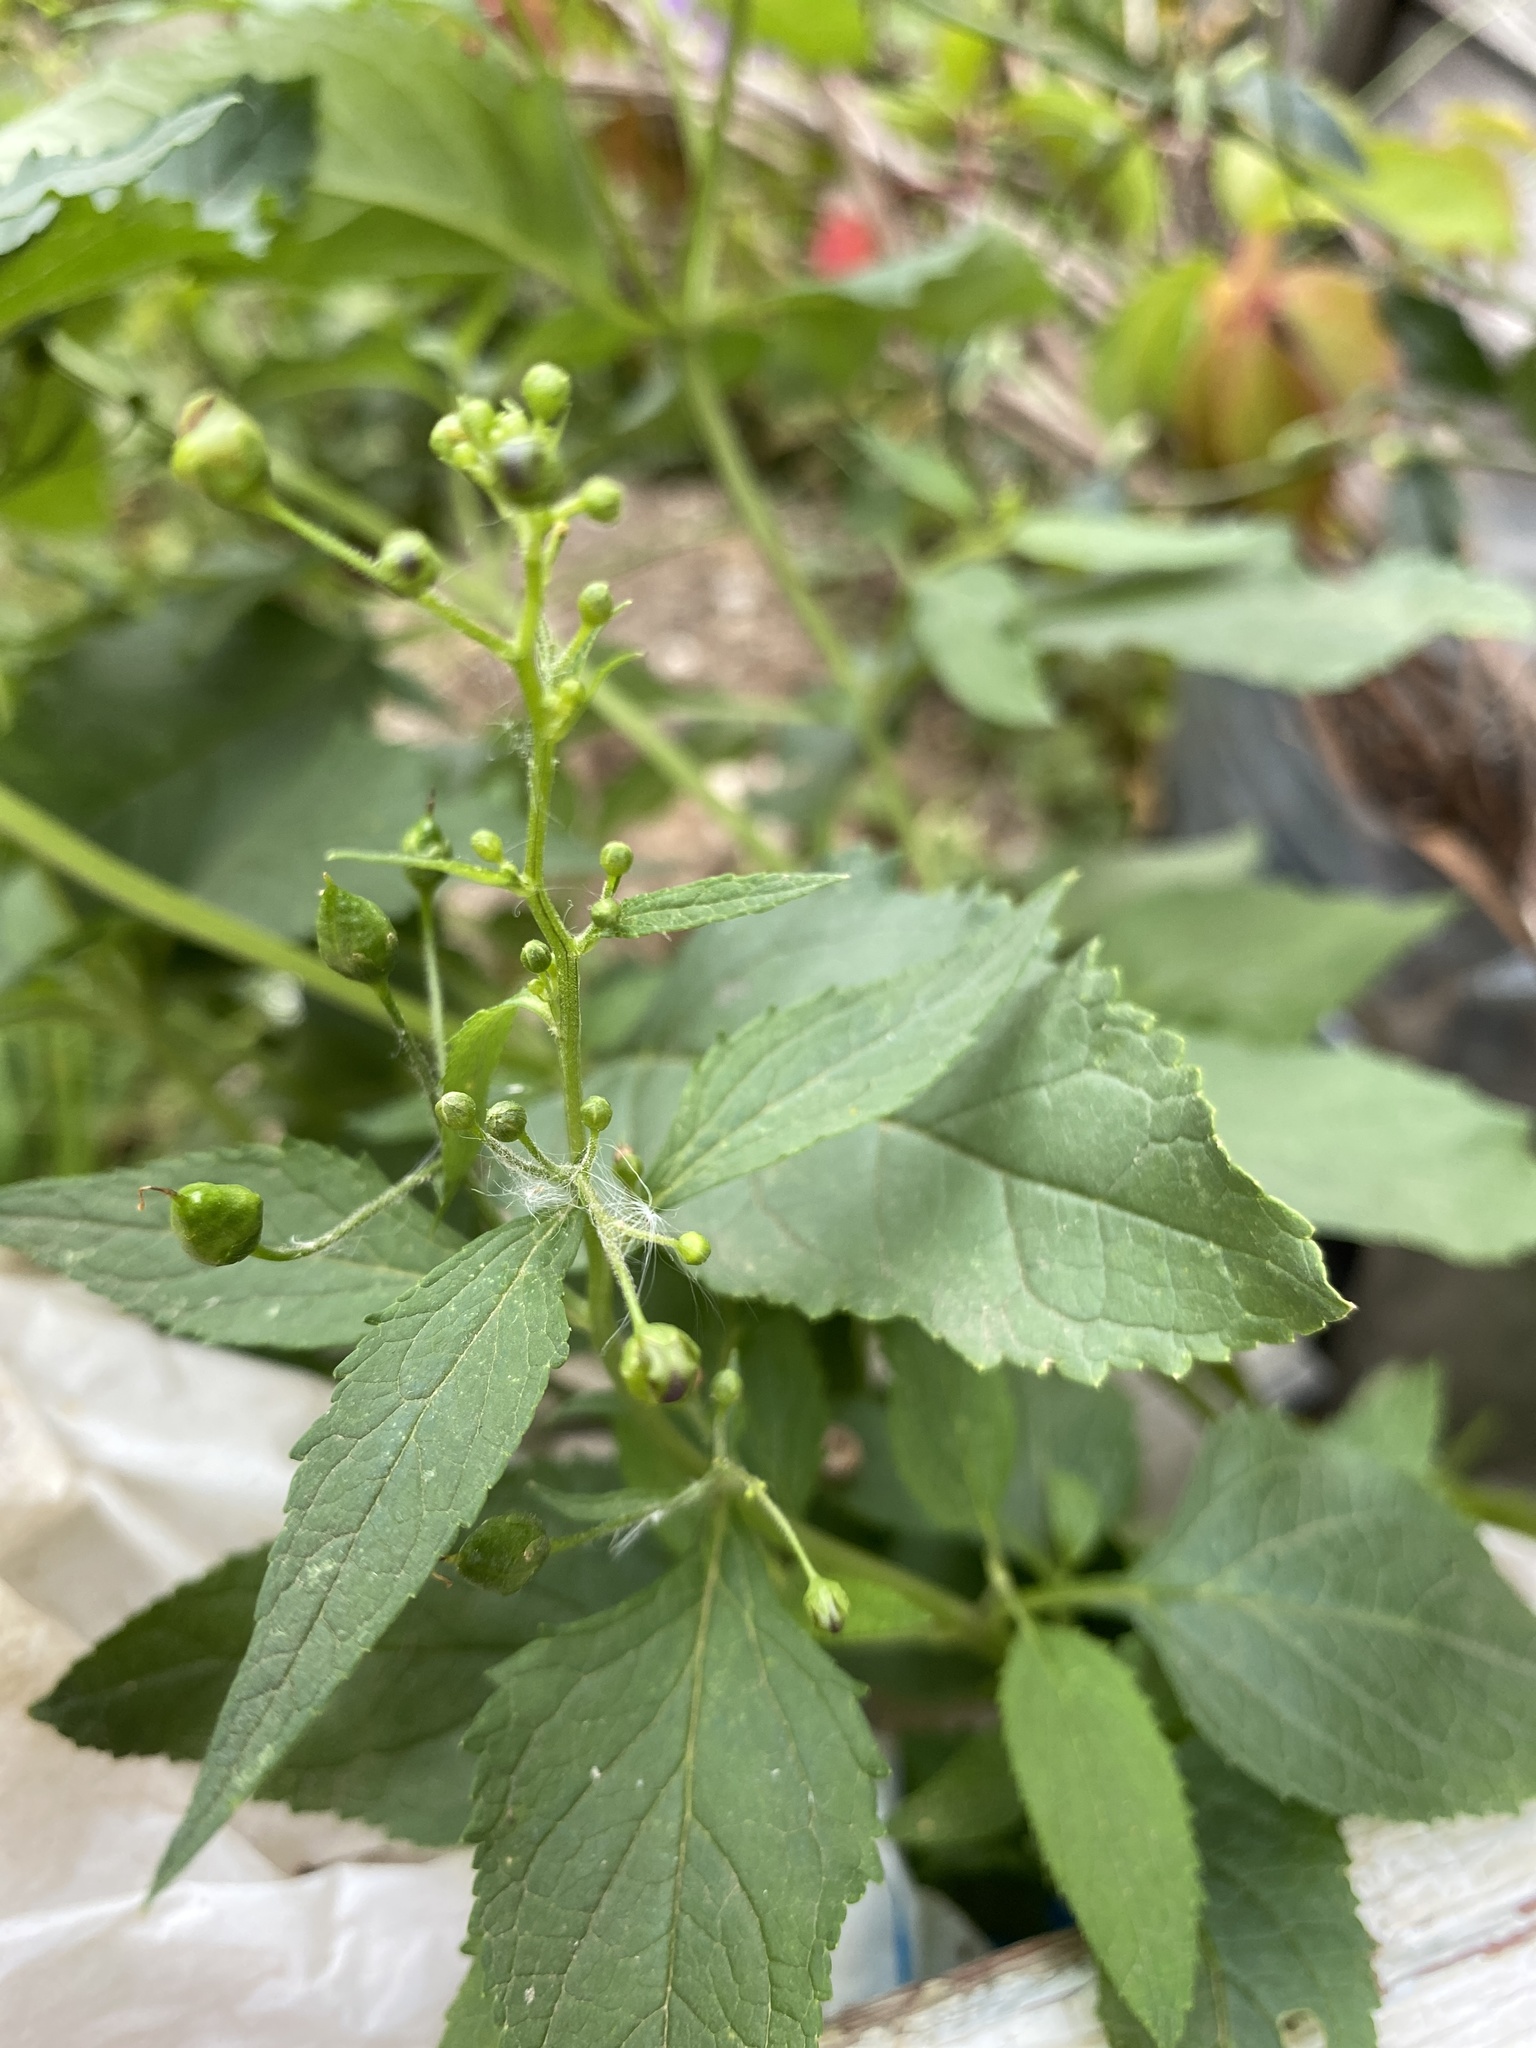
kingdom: Plantae
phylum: Tracheophyta
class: Magnoliopsida
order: Lamiales
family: Scrophulariaceae
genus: Scrophularia
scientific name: Scrophularia nodosa
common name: Common figwort
